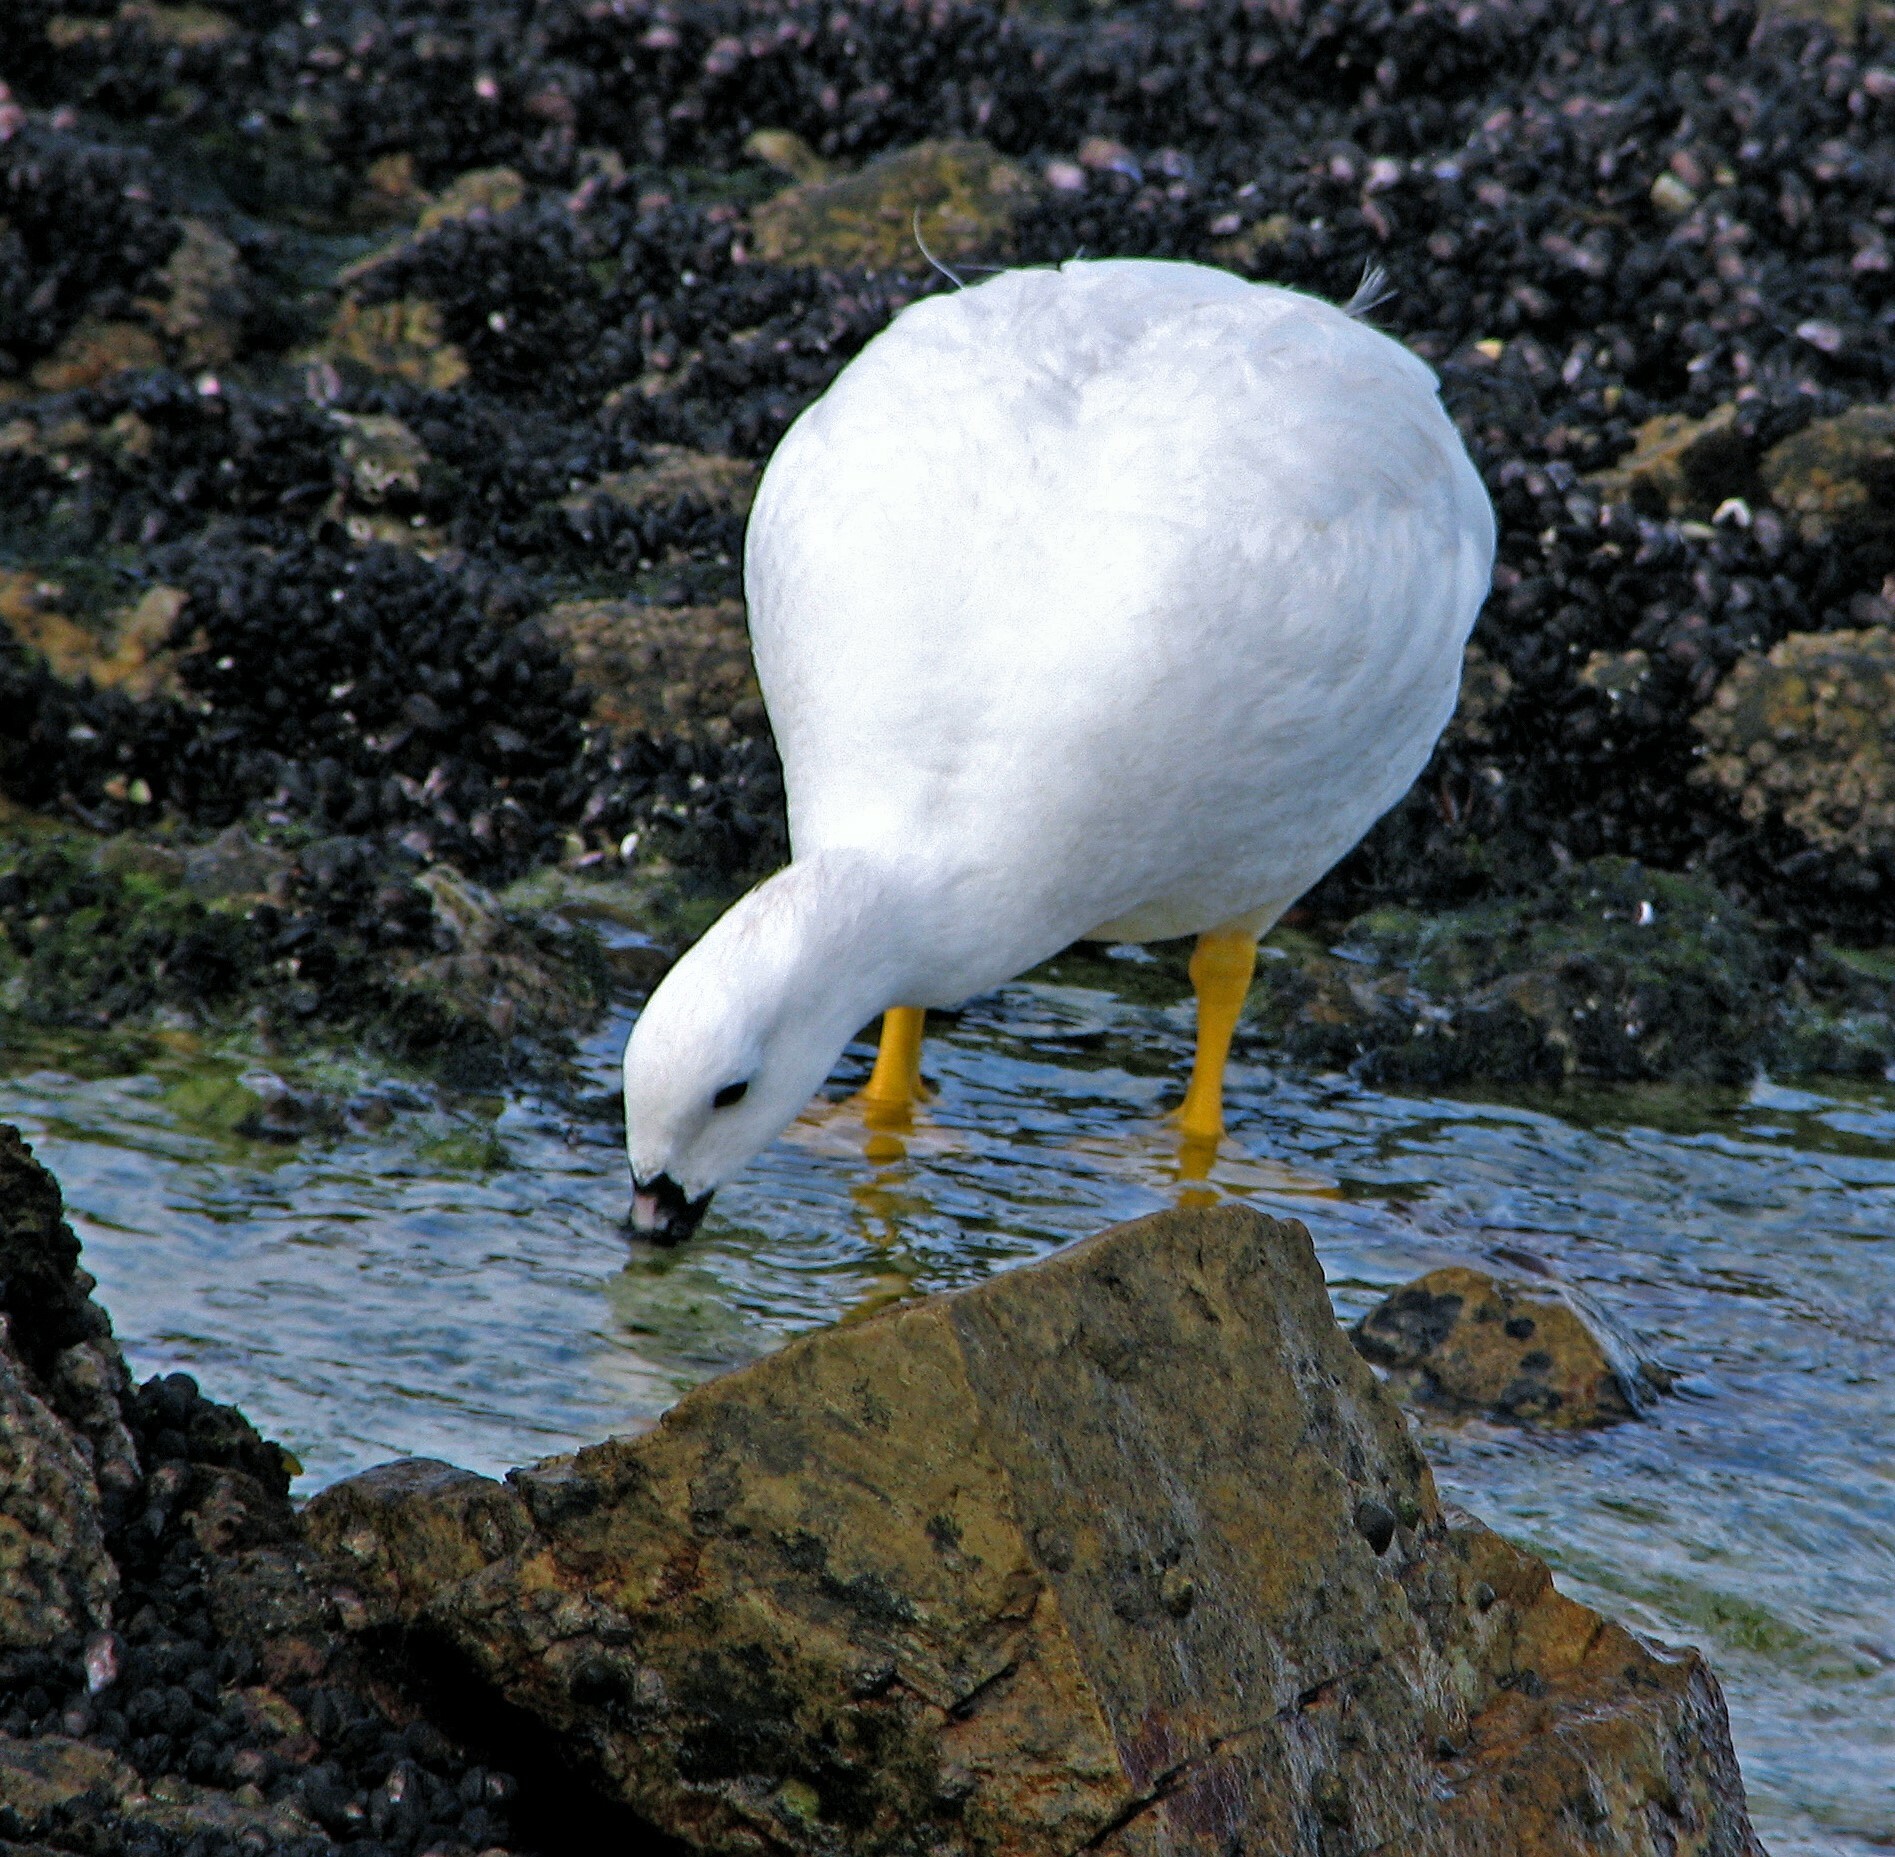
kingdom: Animalia
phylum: Chordata
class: Aves
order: Anseriformes
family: Anatidae
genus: Chloephaga
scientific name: Chloephaga hybrida
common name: Kelp goose
